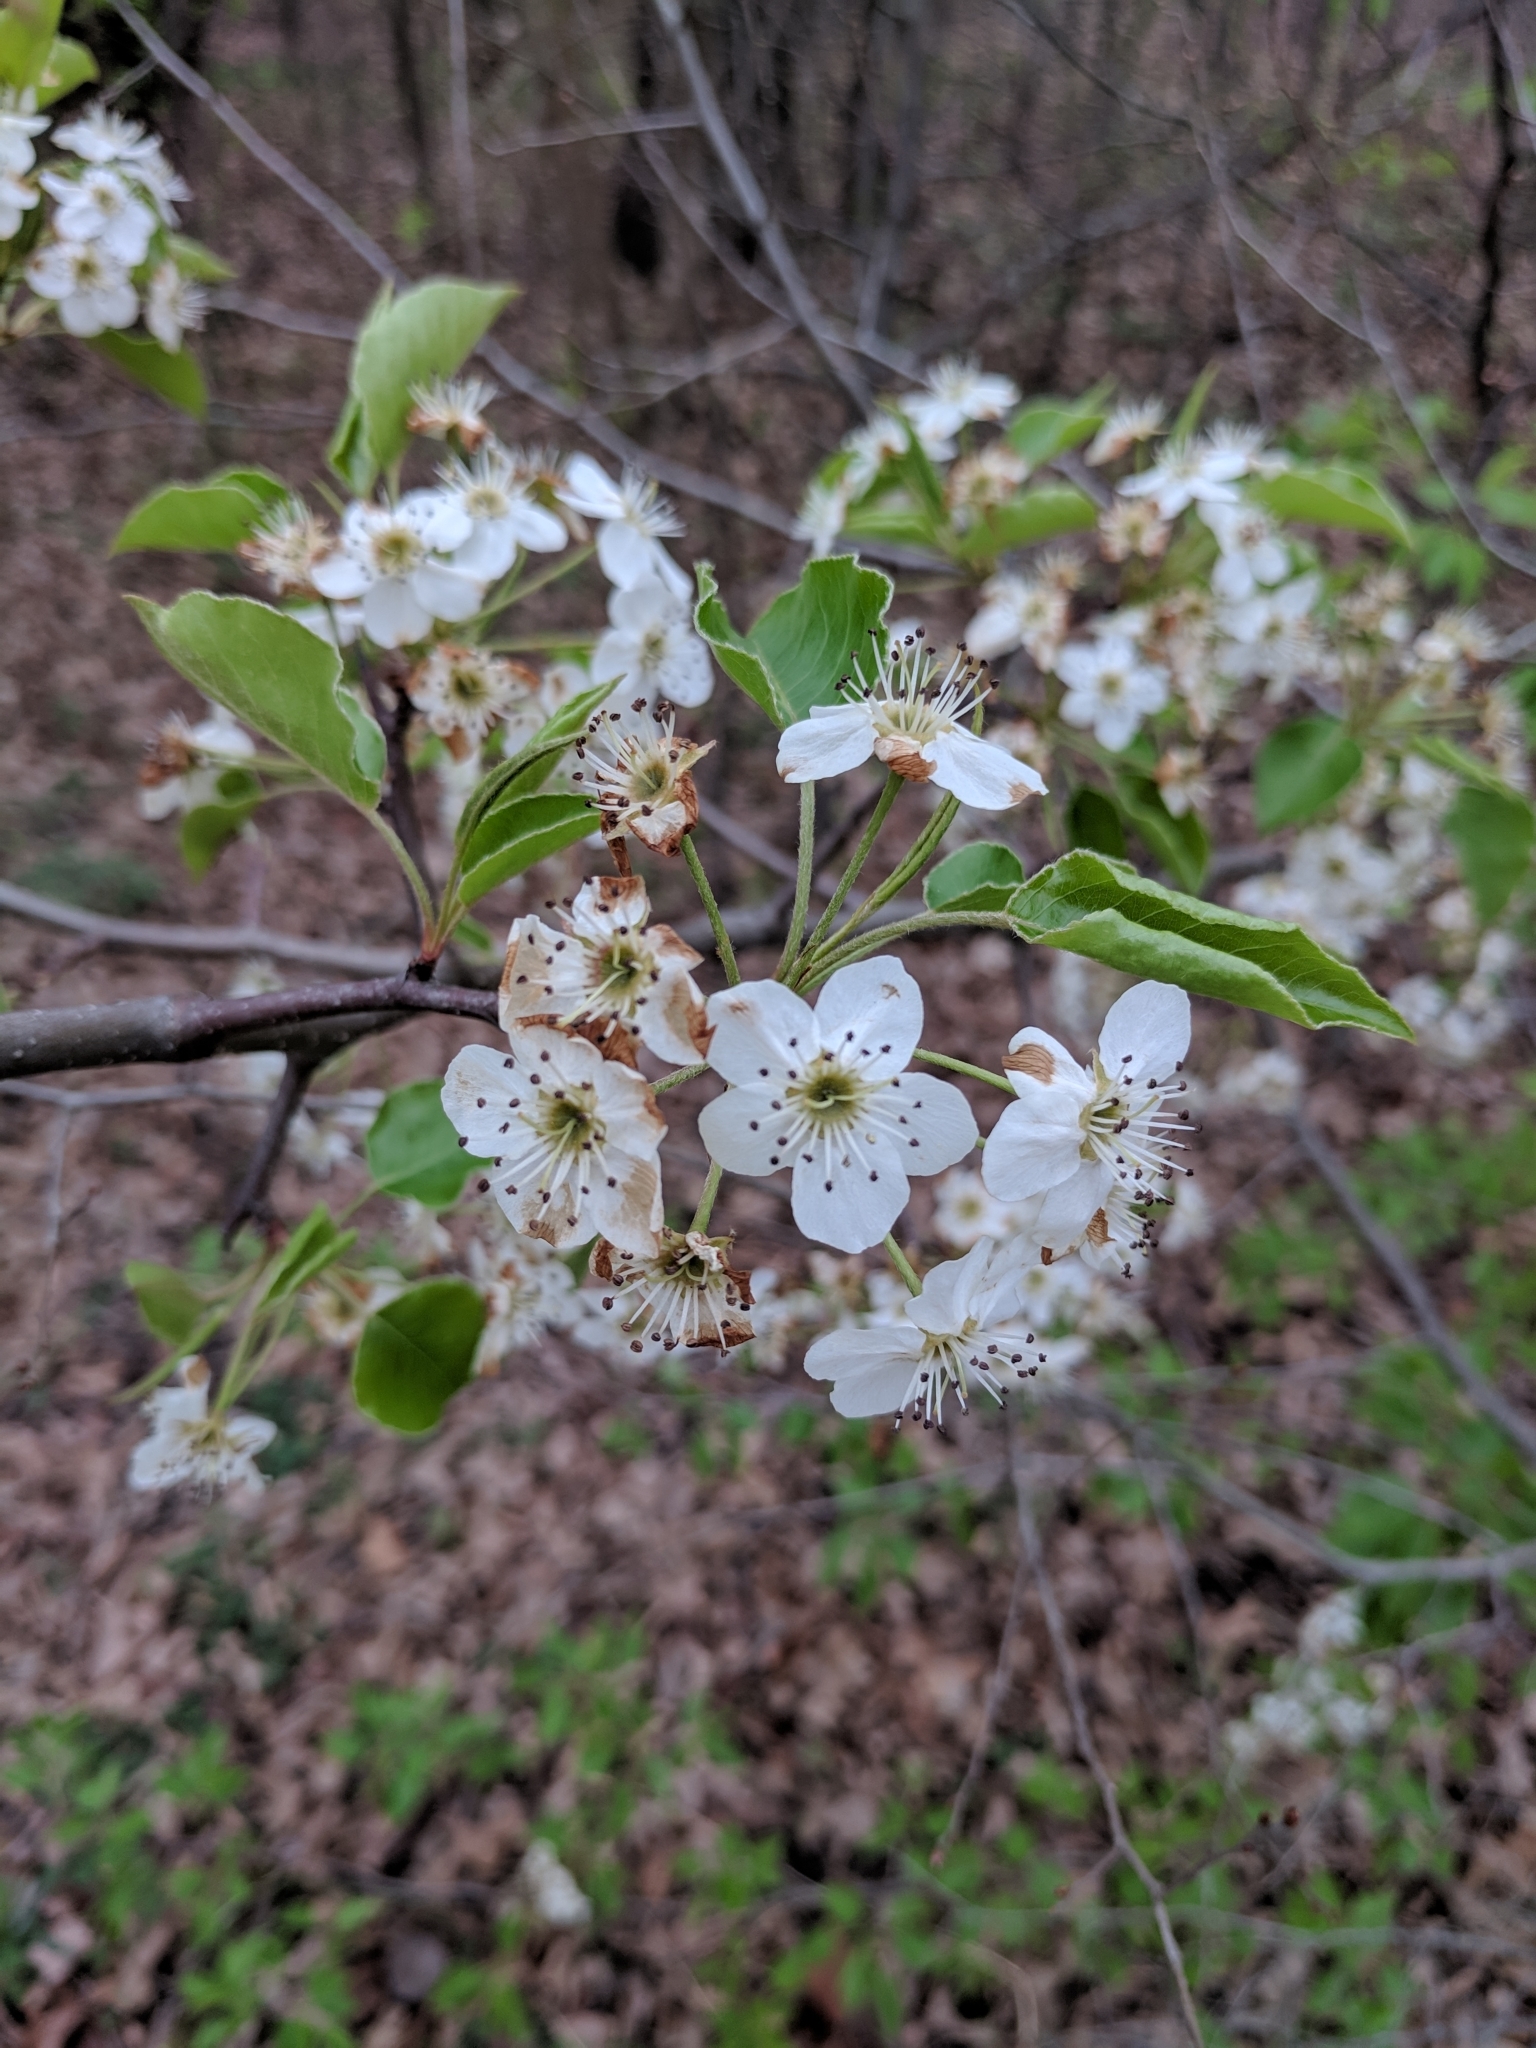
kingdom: Plantae
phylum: Tracheophyta
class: Magnoliopsida
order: Rosales
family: Rosaceae
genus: Pyrus
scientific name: Pyrus calleryana
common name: Callery pear
